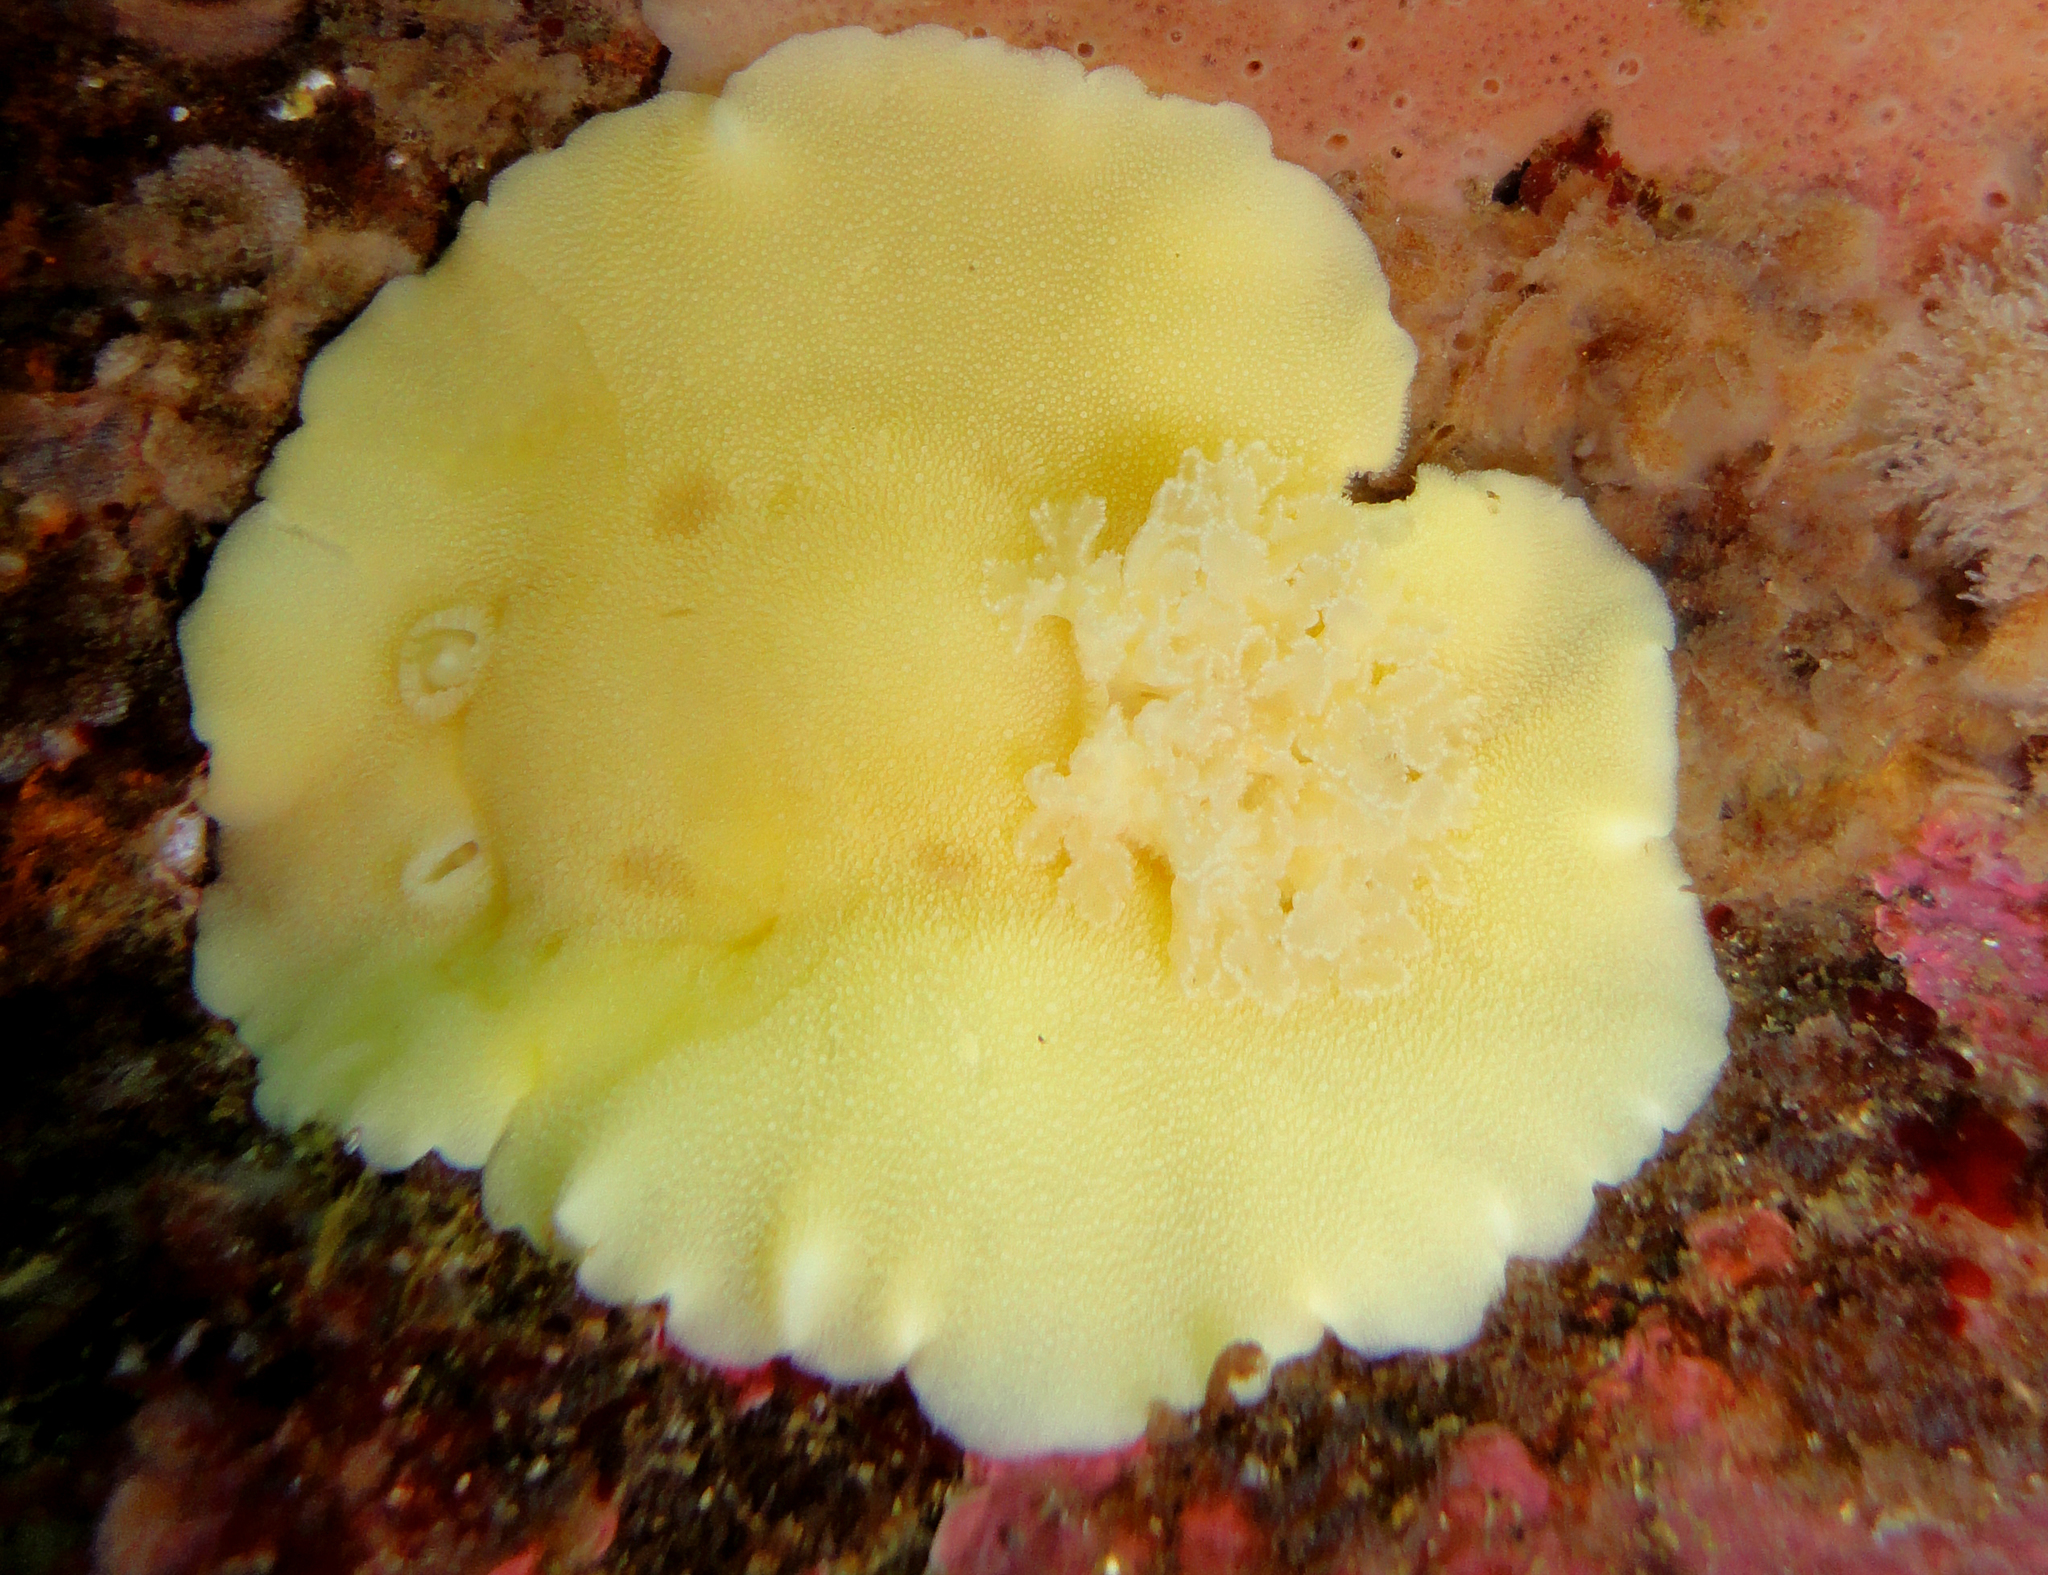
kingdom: Animalia
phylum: Mollusca
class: Gastropoda
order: Nudibranchia
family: Discodorididae
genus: Gargamella
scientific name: Gargamella immaculata
